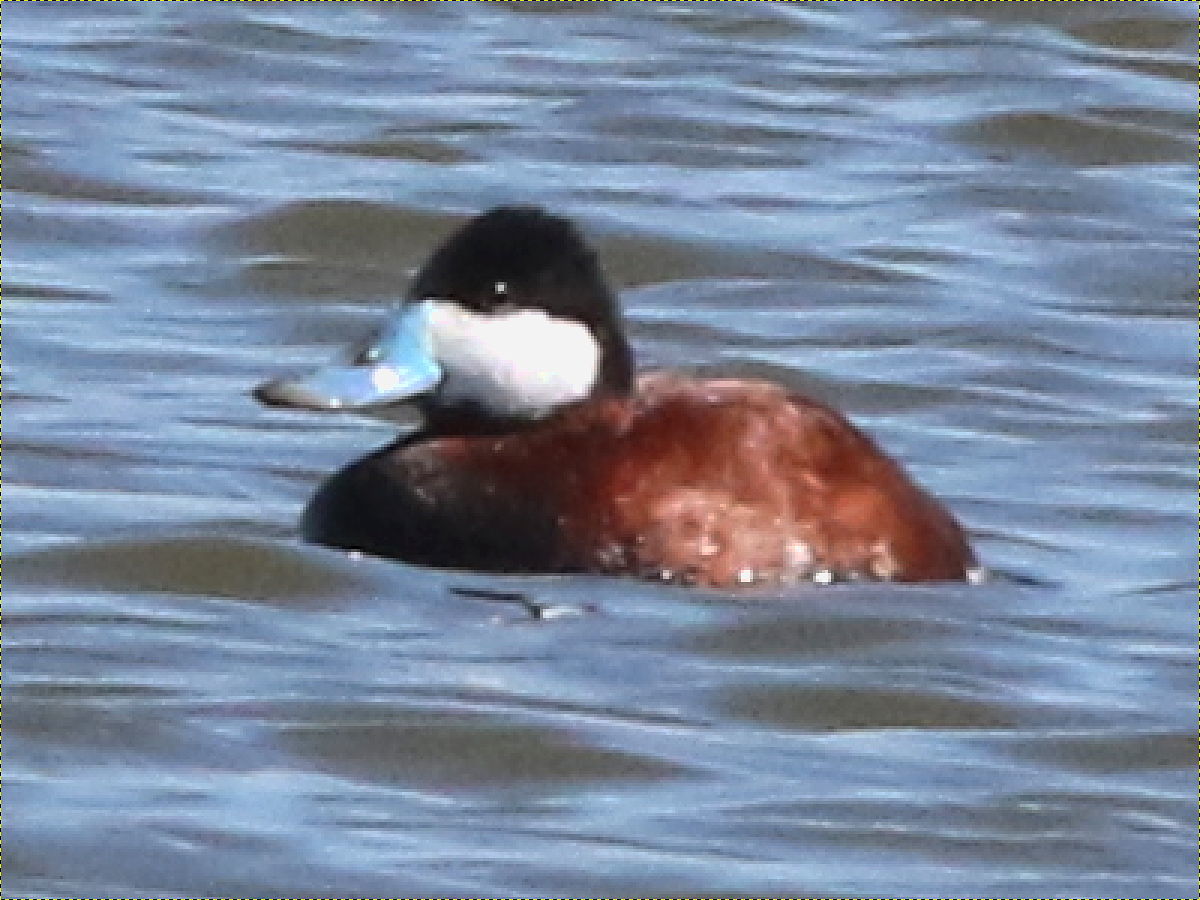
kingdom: Animalia
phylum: Chordata
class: Aves
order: Anseriformes
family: Anatidae
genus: Oxyura
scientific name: Oxyura jamaicensis
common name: Ruddy duck
